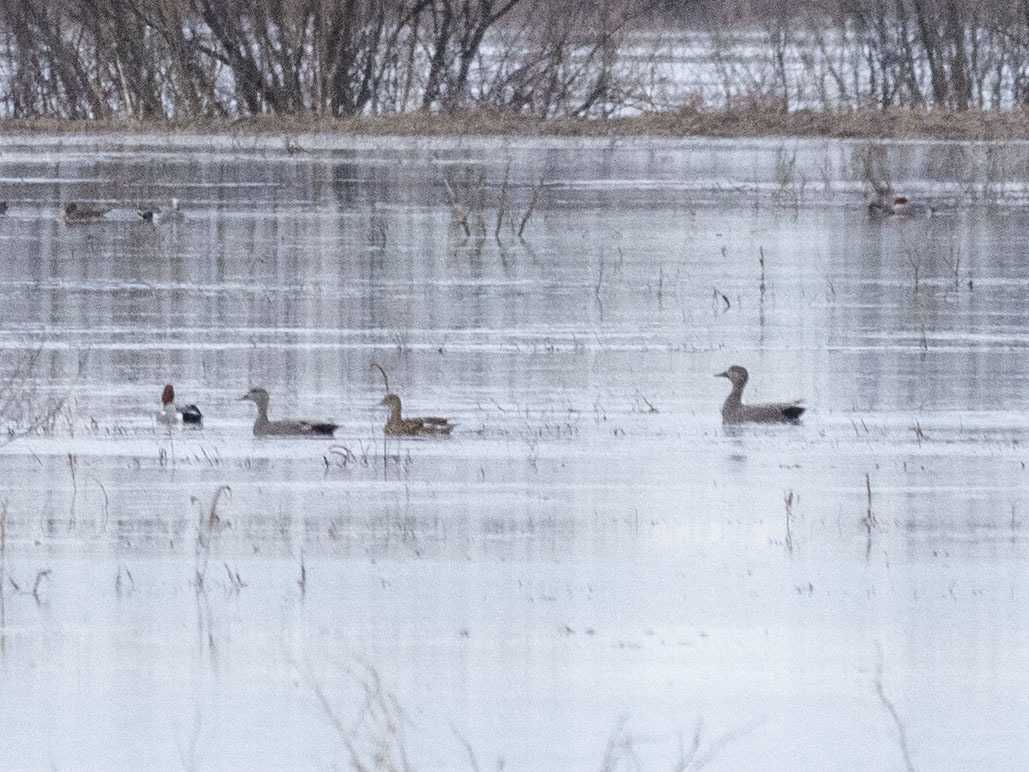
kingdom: Animalia
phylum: Chordata
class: Aves
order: Anseriformes
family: Anatidae
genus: Mareca
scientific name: Mareca strepera
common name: Gadwall
